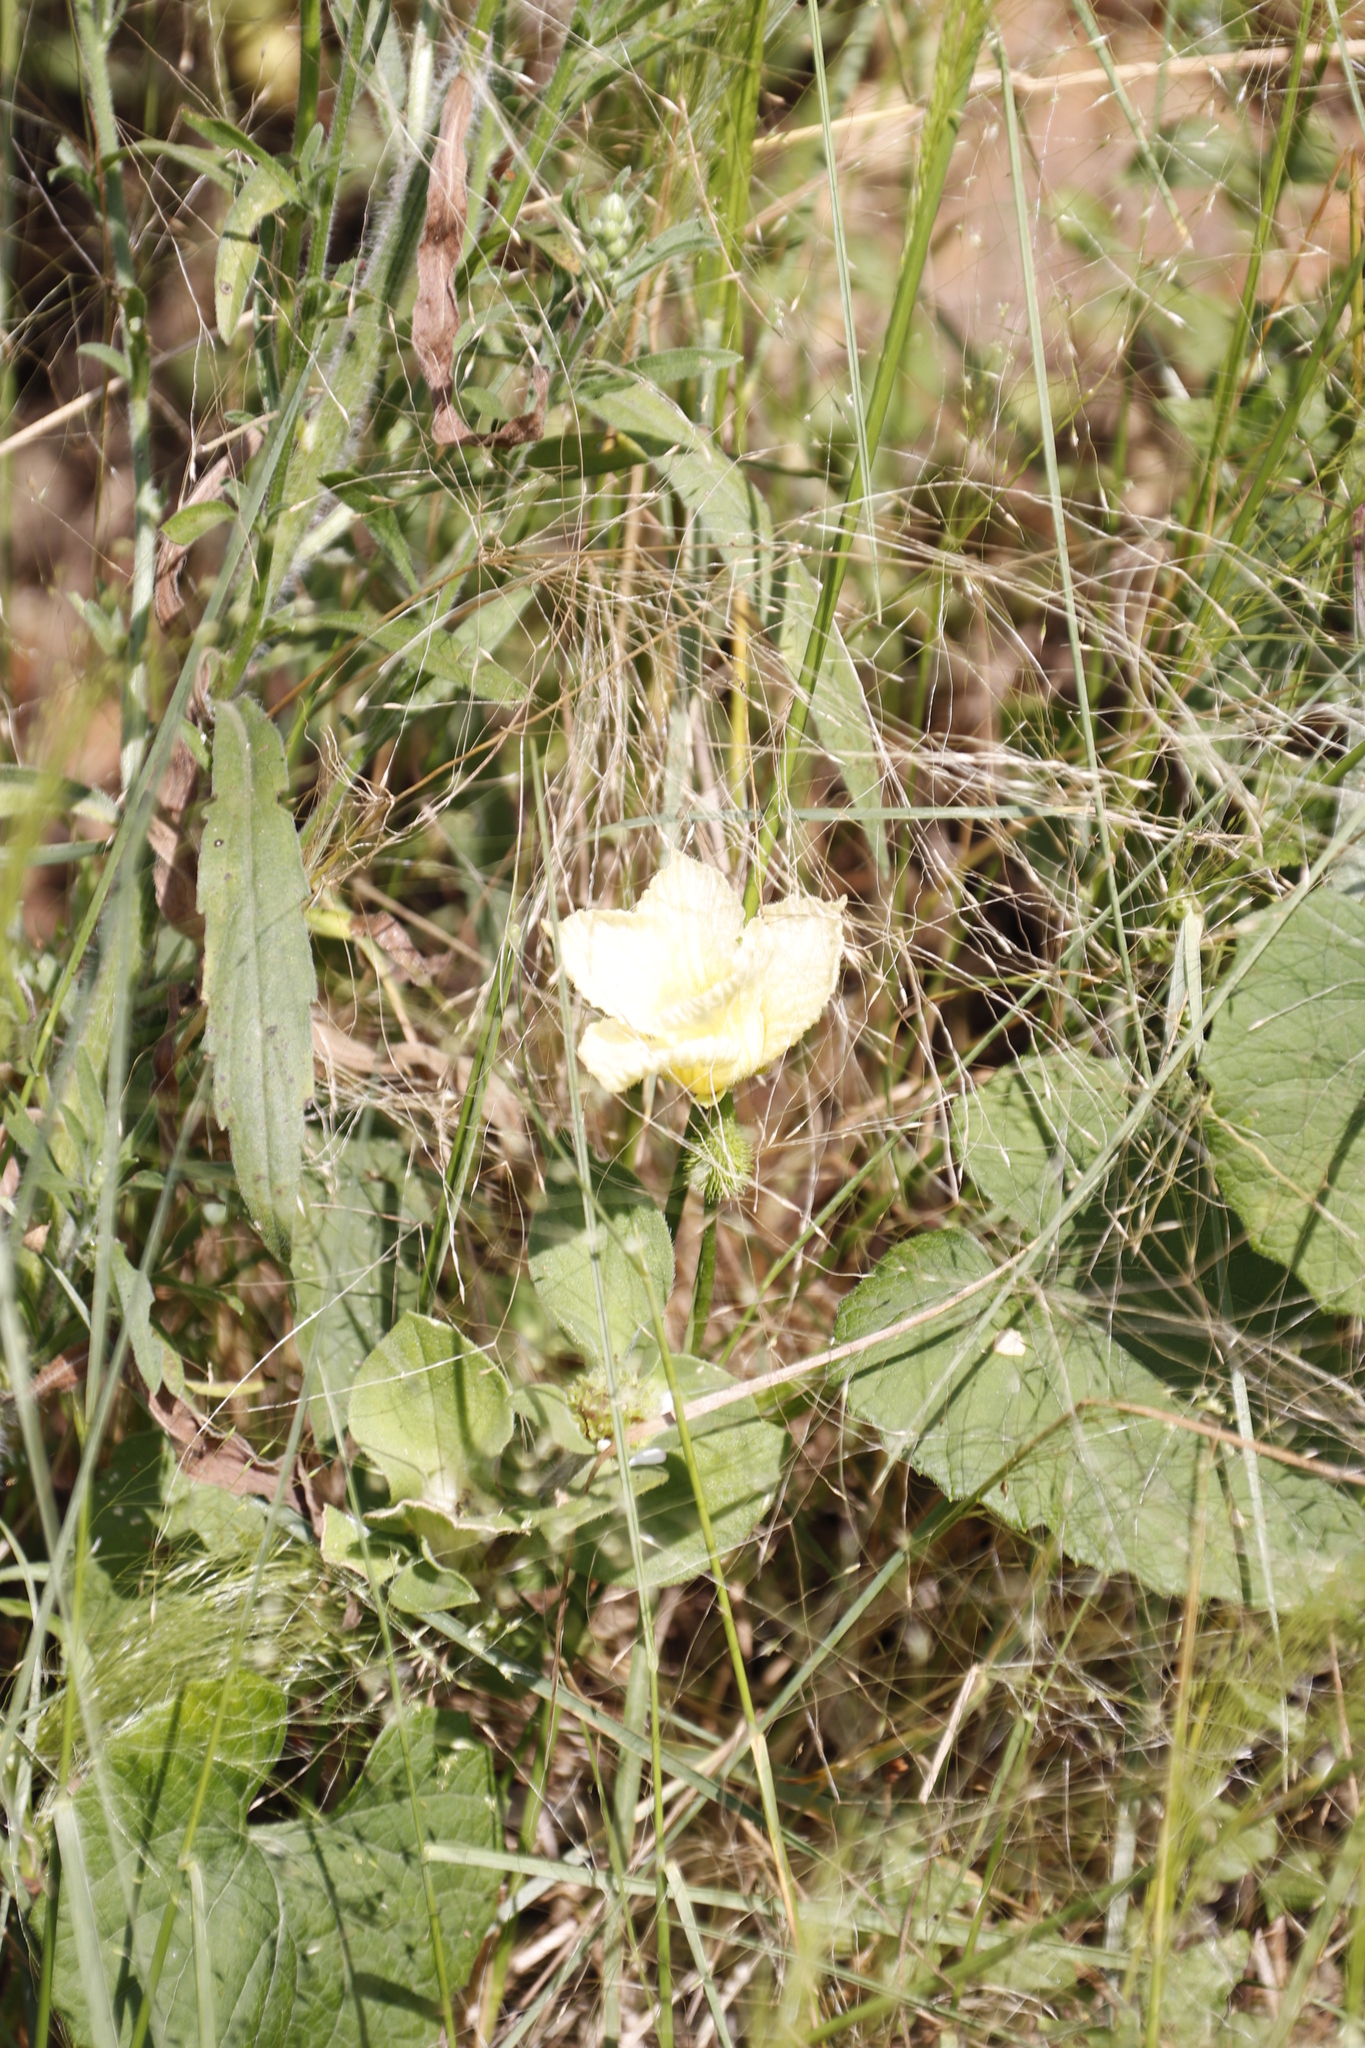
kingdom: Plantae
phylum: Tracheophyta
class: Magnoliopsida
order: Cucurbitales
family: Cucurbitaceae
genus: Momordica
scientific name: Momordica foetida
